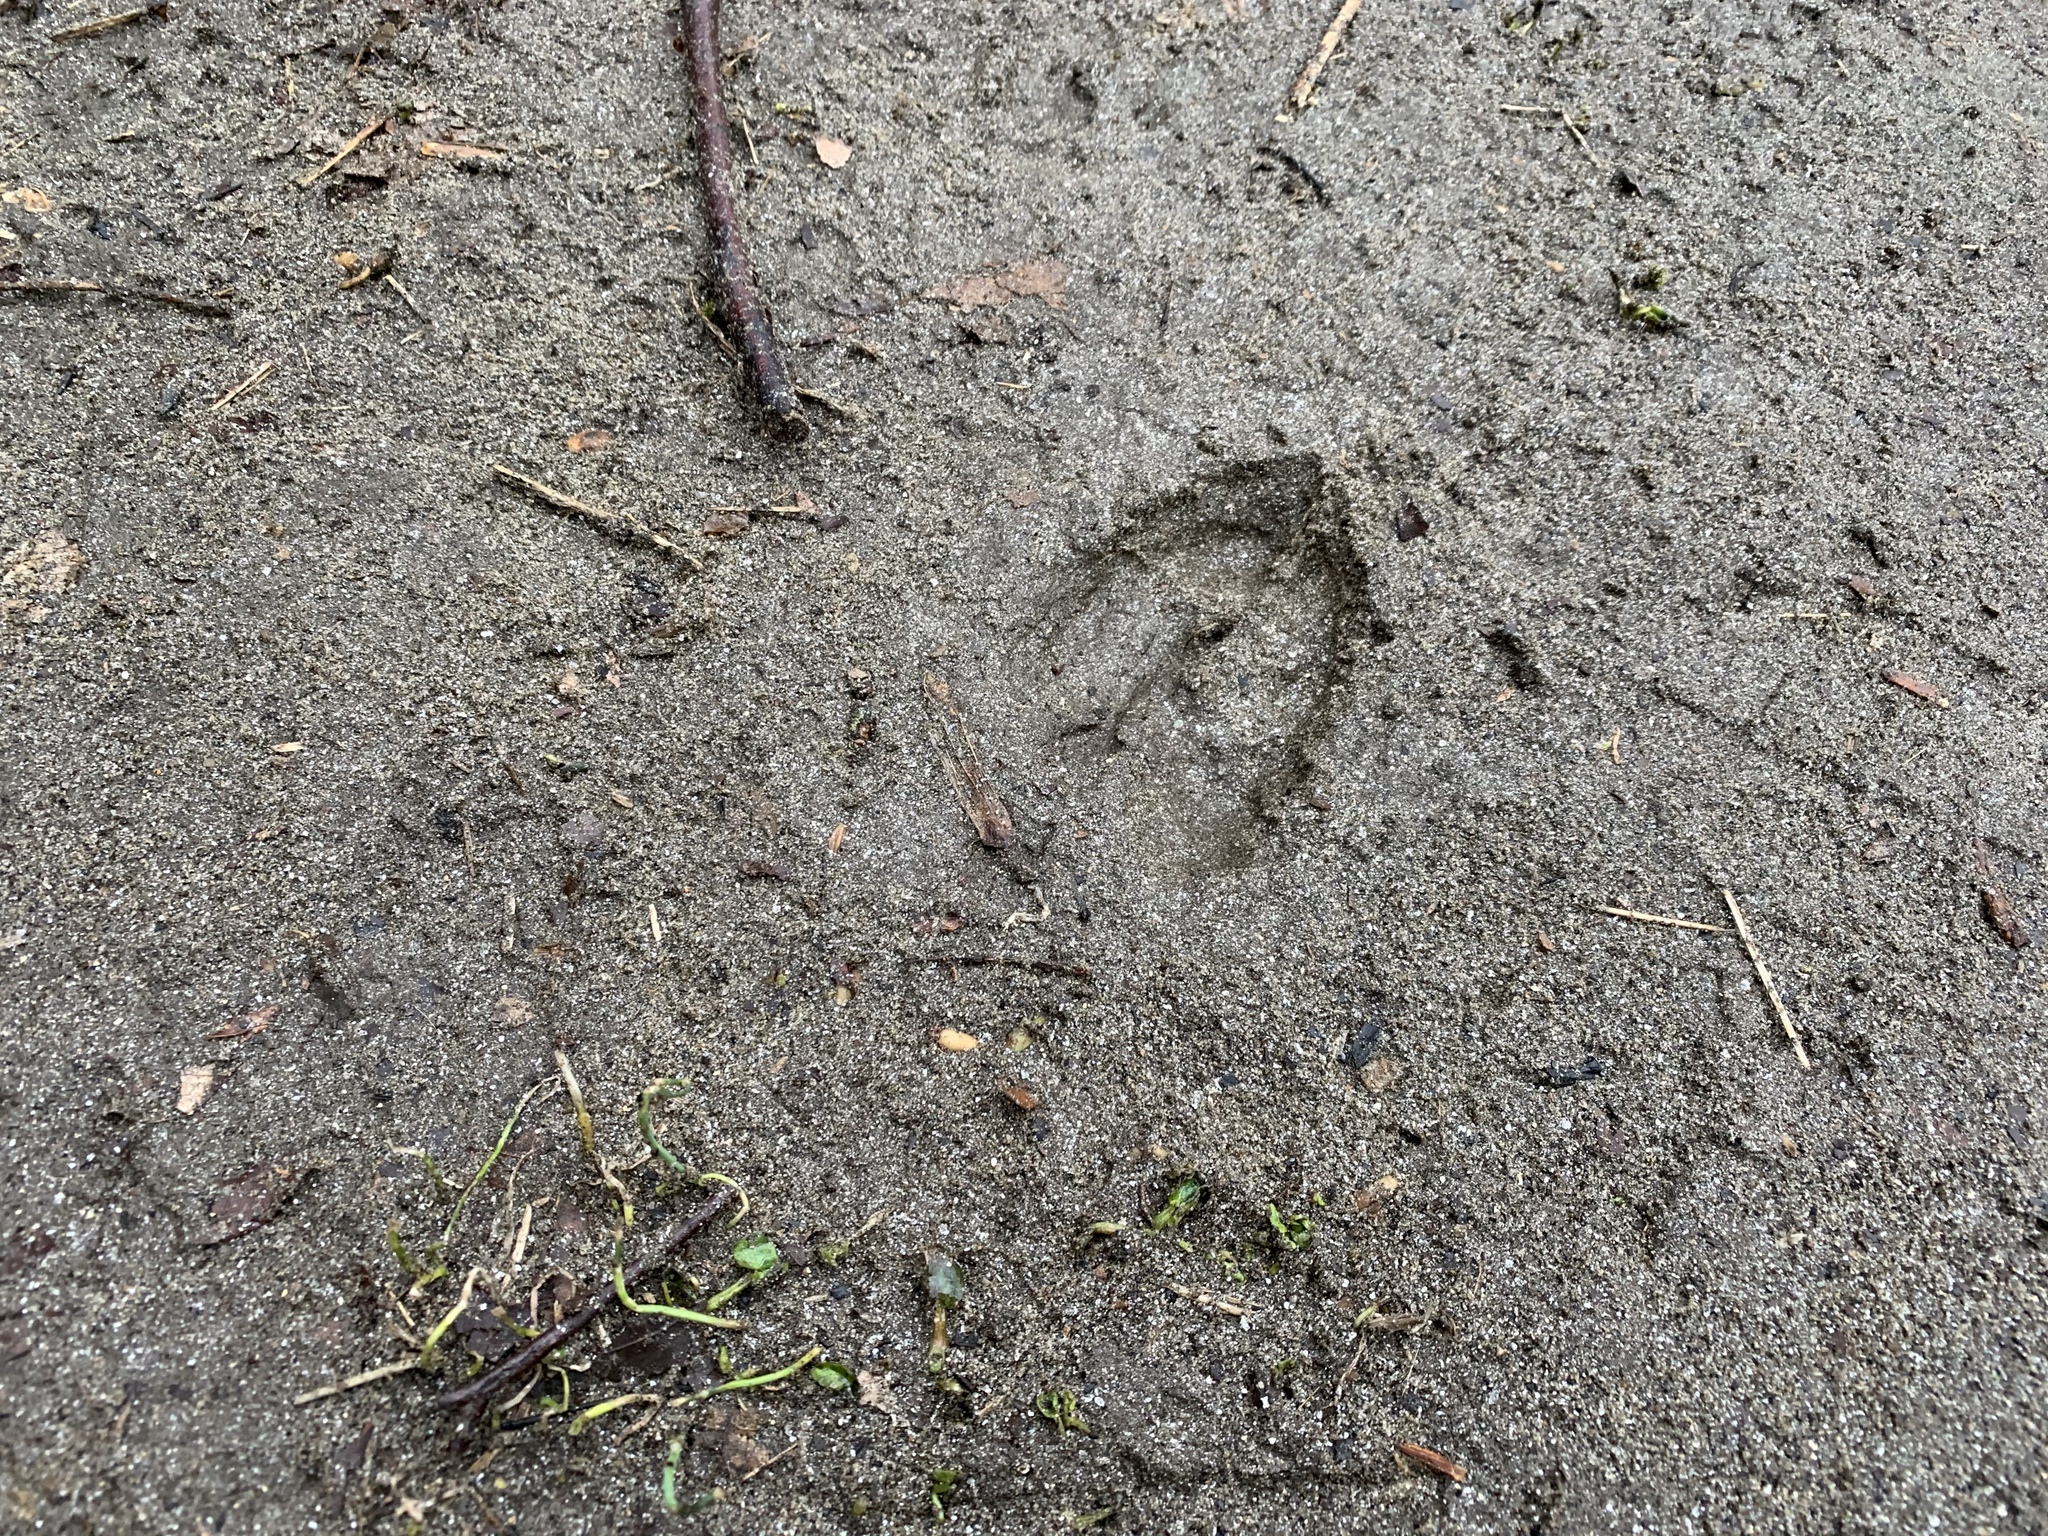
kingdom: Animalia
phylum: Chordata
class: Mammalia
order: Artiodactyla
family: Cervidae
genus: Odocoileus
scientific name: Odocoileus virginianus
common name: White-tailed deer
